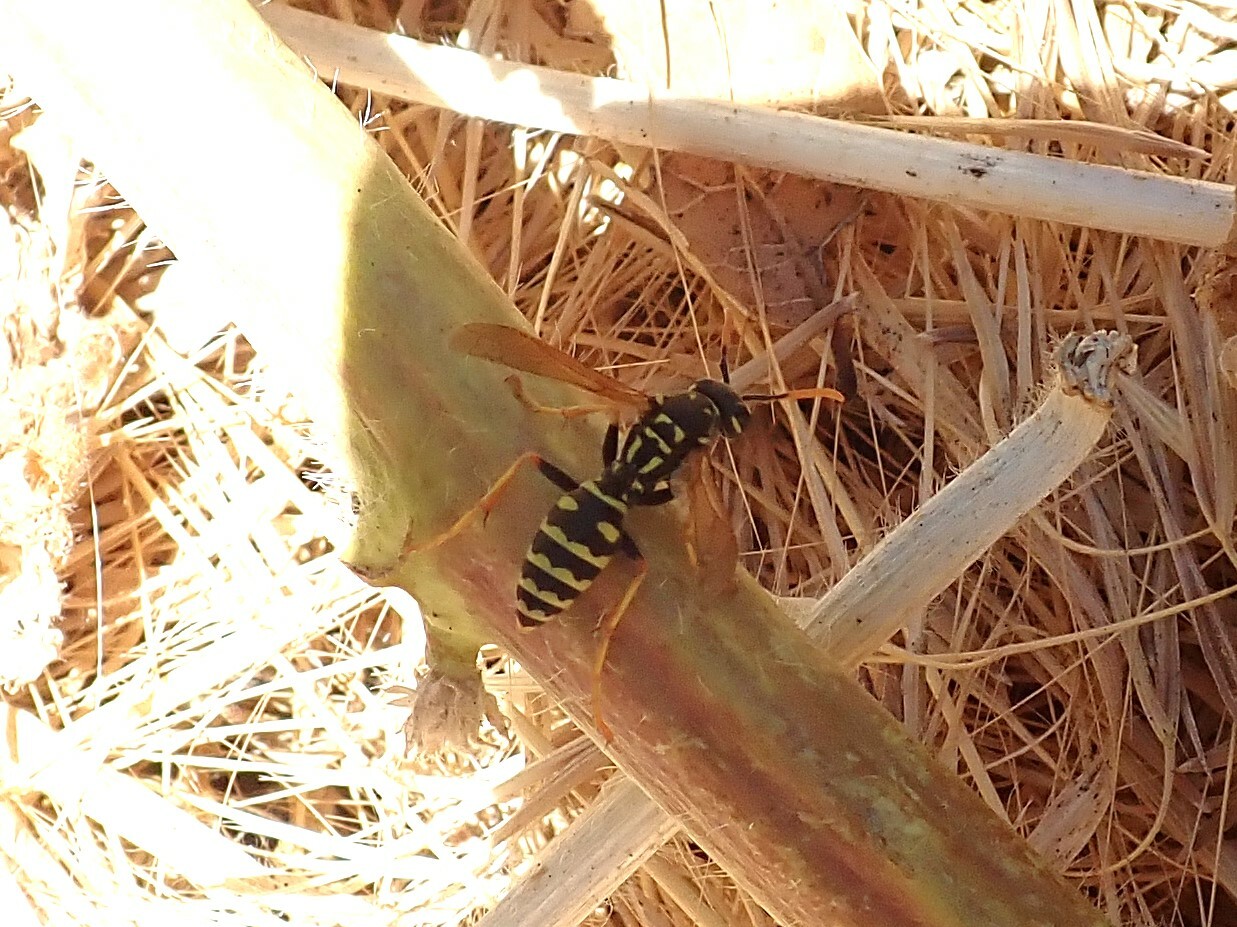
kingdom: Animalia
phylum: Arthropoda
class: Insecta
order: Hymenoptera
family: Eumenidae
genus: Polistes
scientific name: Polistes dominula
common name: Paper wasp
